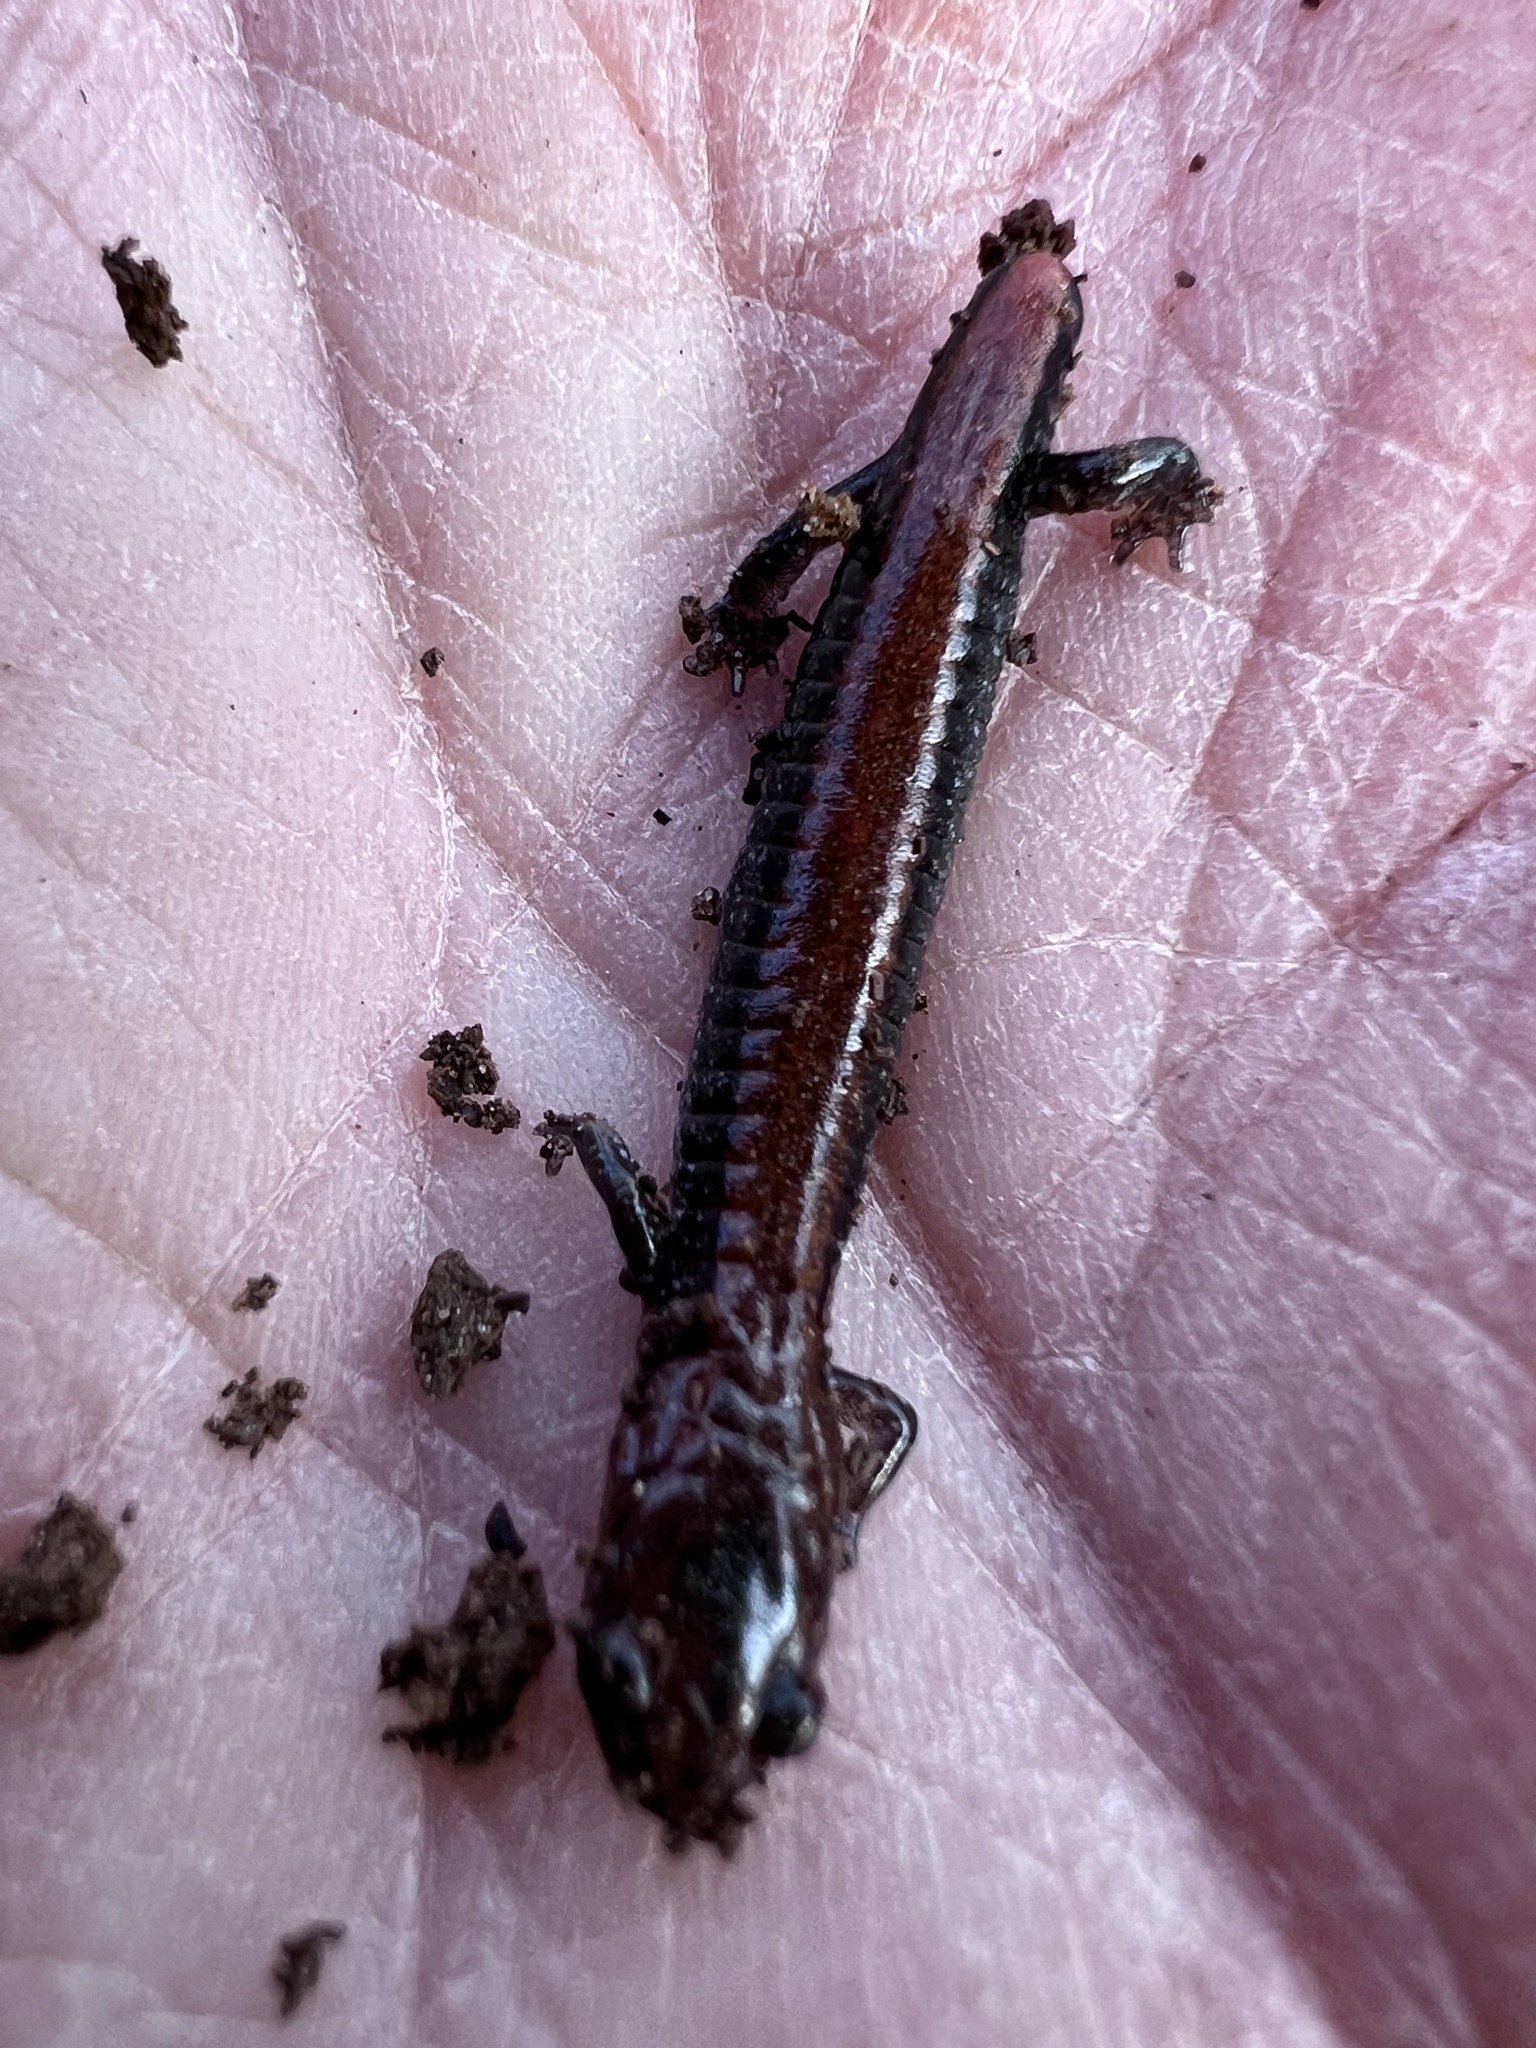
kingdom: Animalia
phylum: Chordata
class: Amphibia
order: Caudata
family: Plethodontidae
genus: Plethodon
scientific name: Plethodon cinereus
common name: Redback salamander
